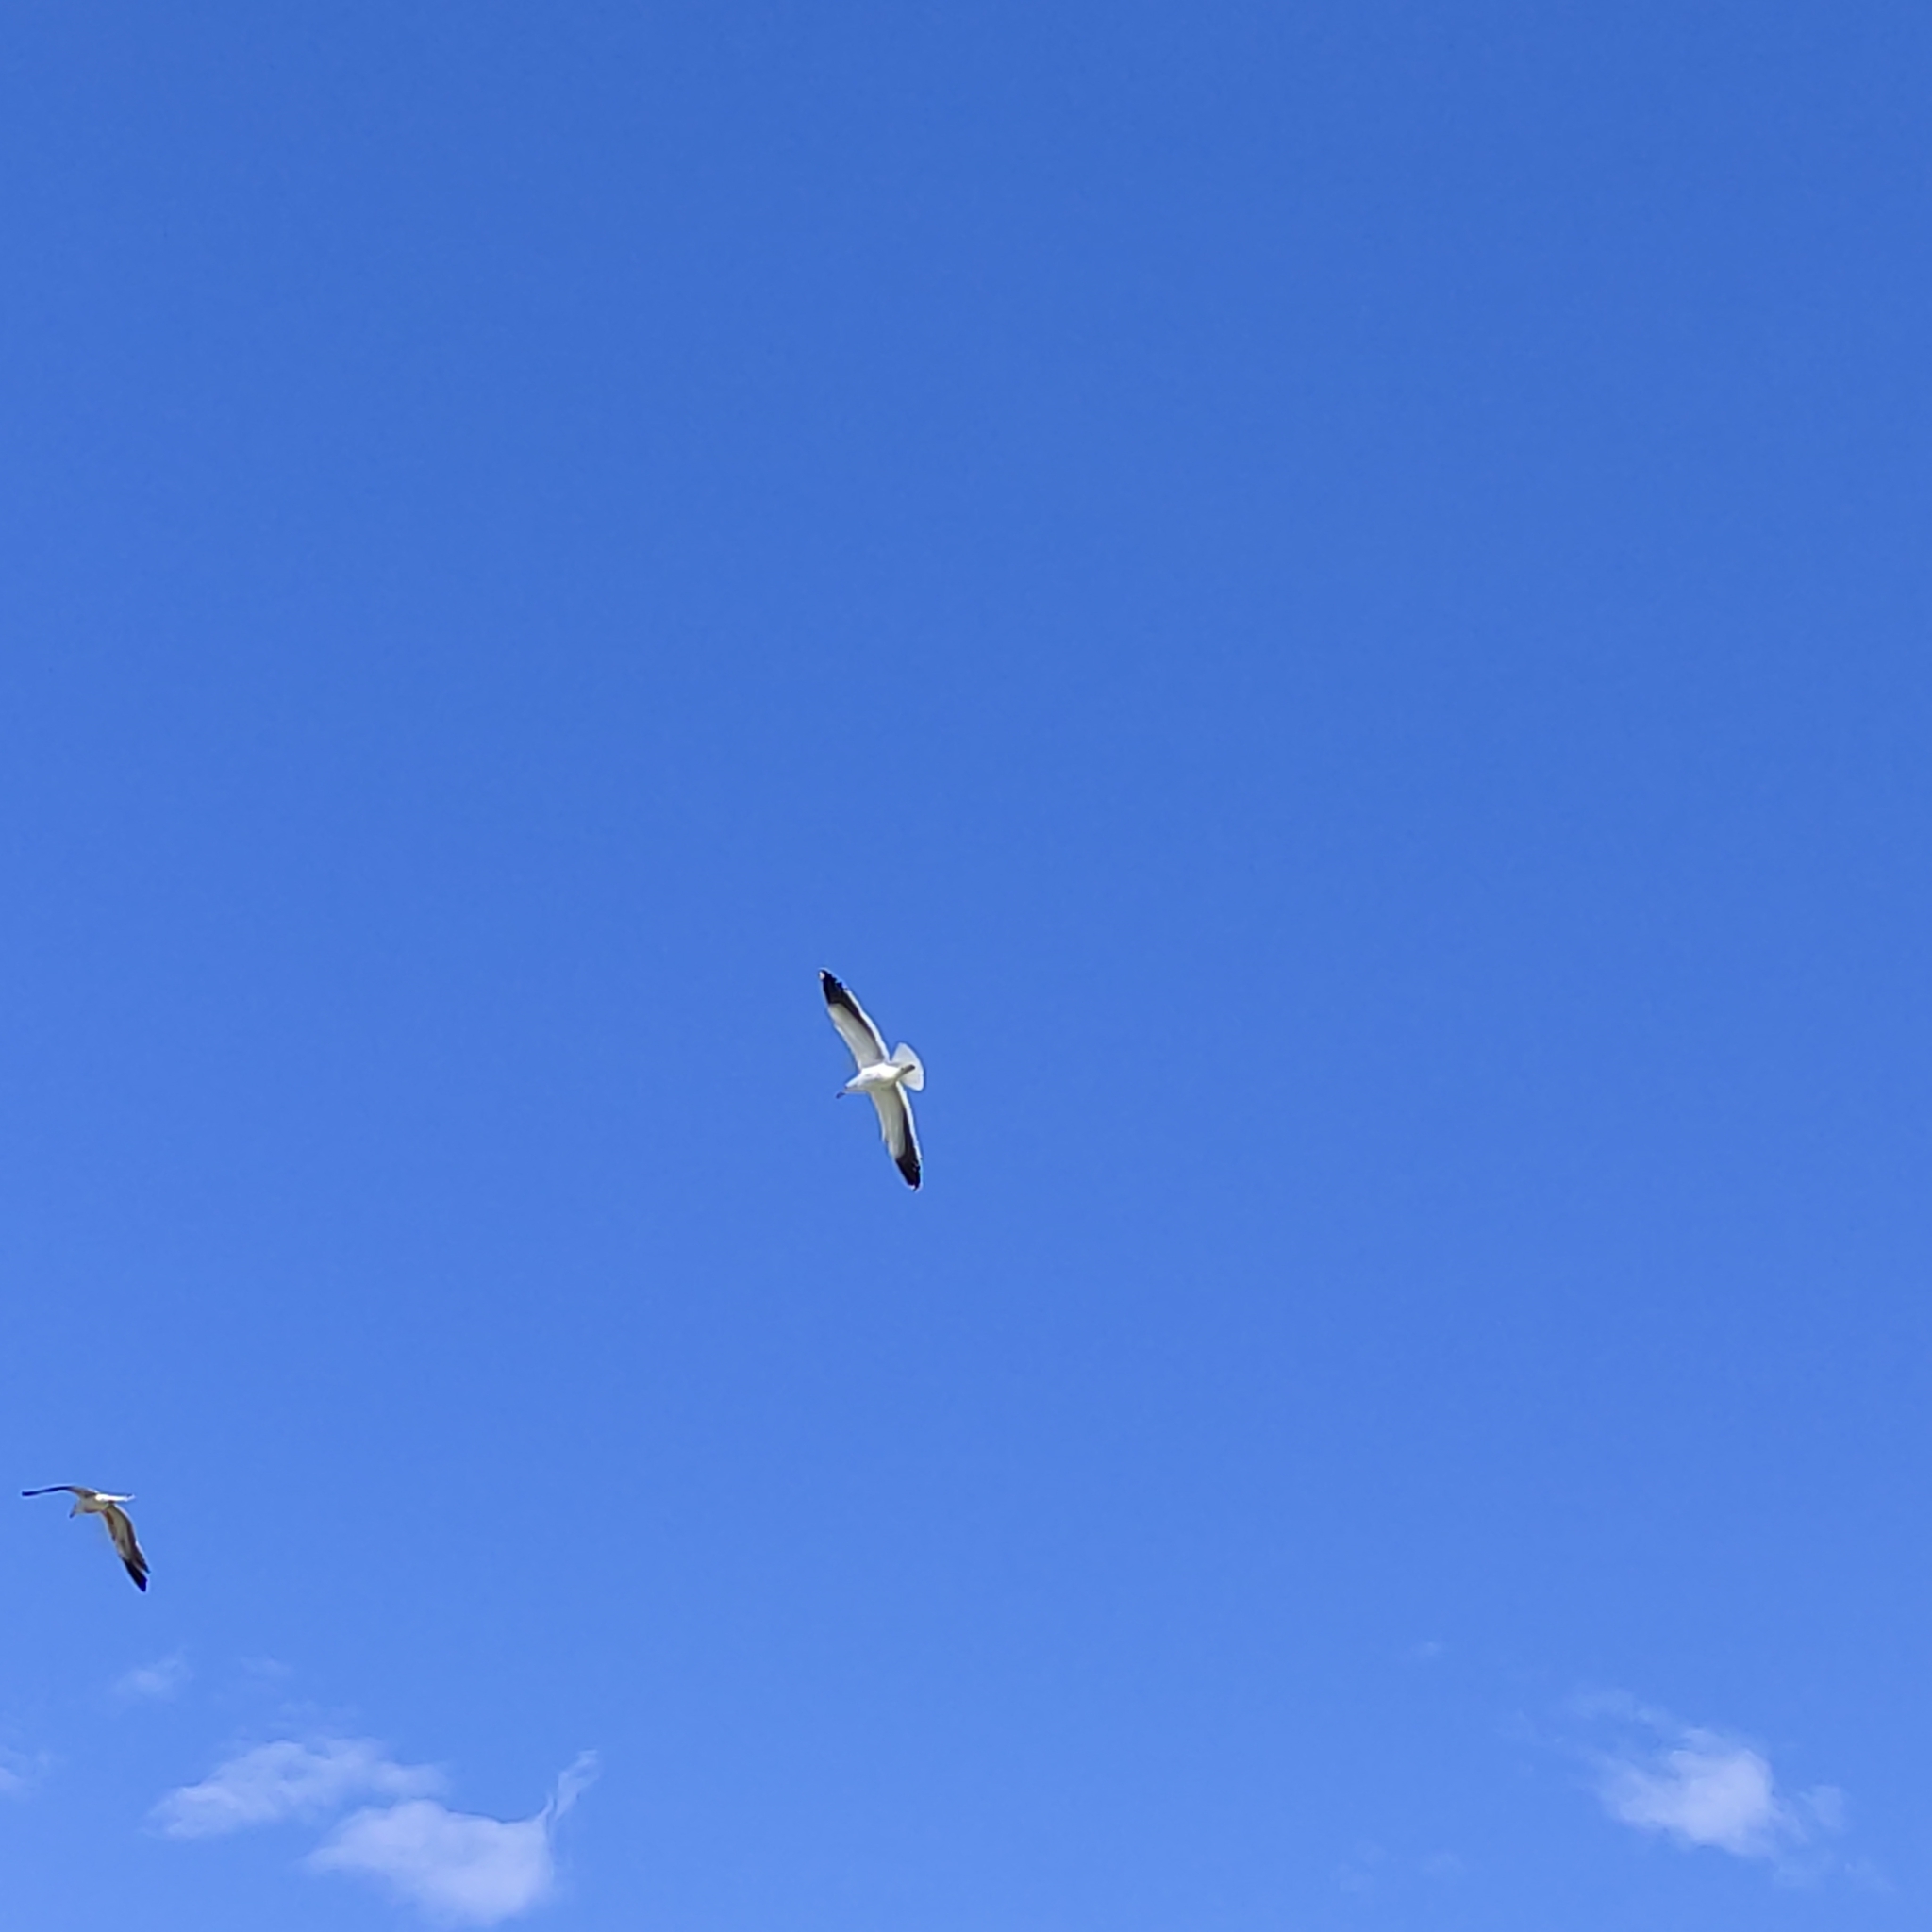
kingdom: Animalia
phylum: Chordata
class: Aves
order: Charadriiformes
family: Laridae
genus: Larus
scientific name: Larus dominicanus
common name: Kelp gull
